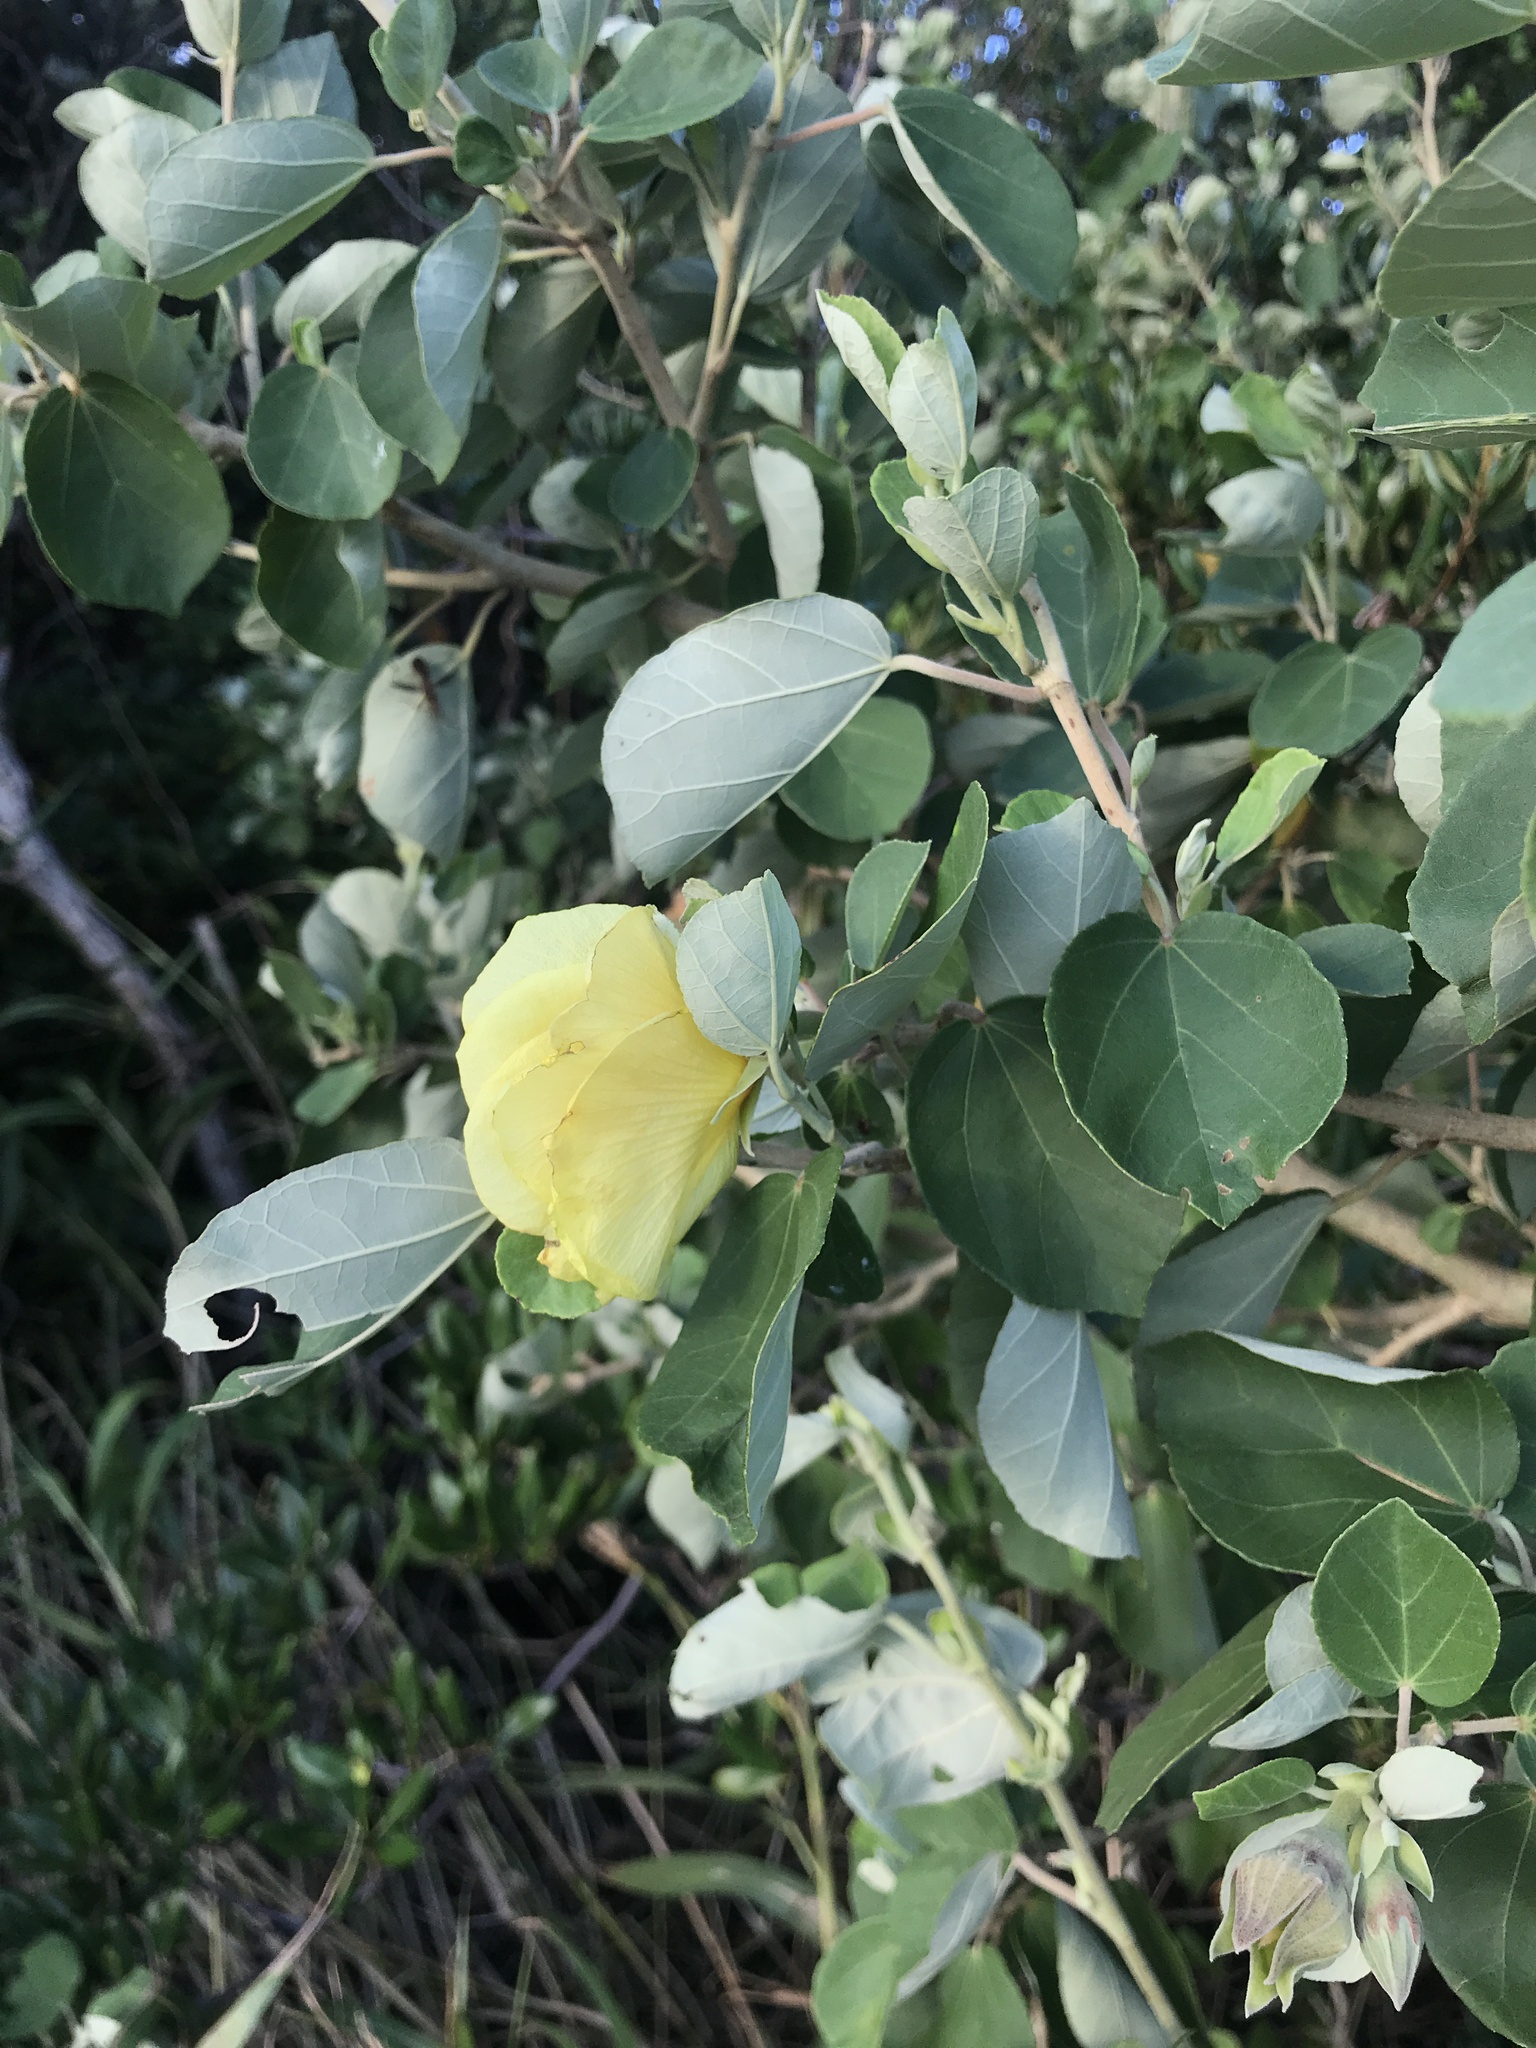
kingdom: Plantae
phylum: Tracheophyta
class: Magnoliopsida
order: Malvales
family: Malvaceae
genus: Talipariti
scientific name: Talipariti hamabo
